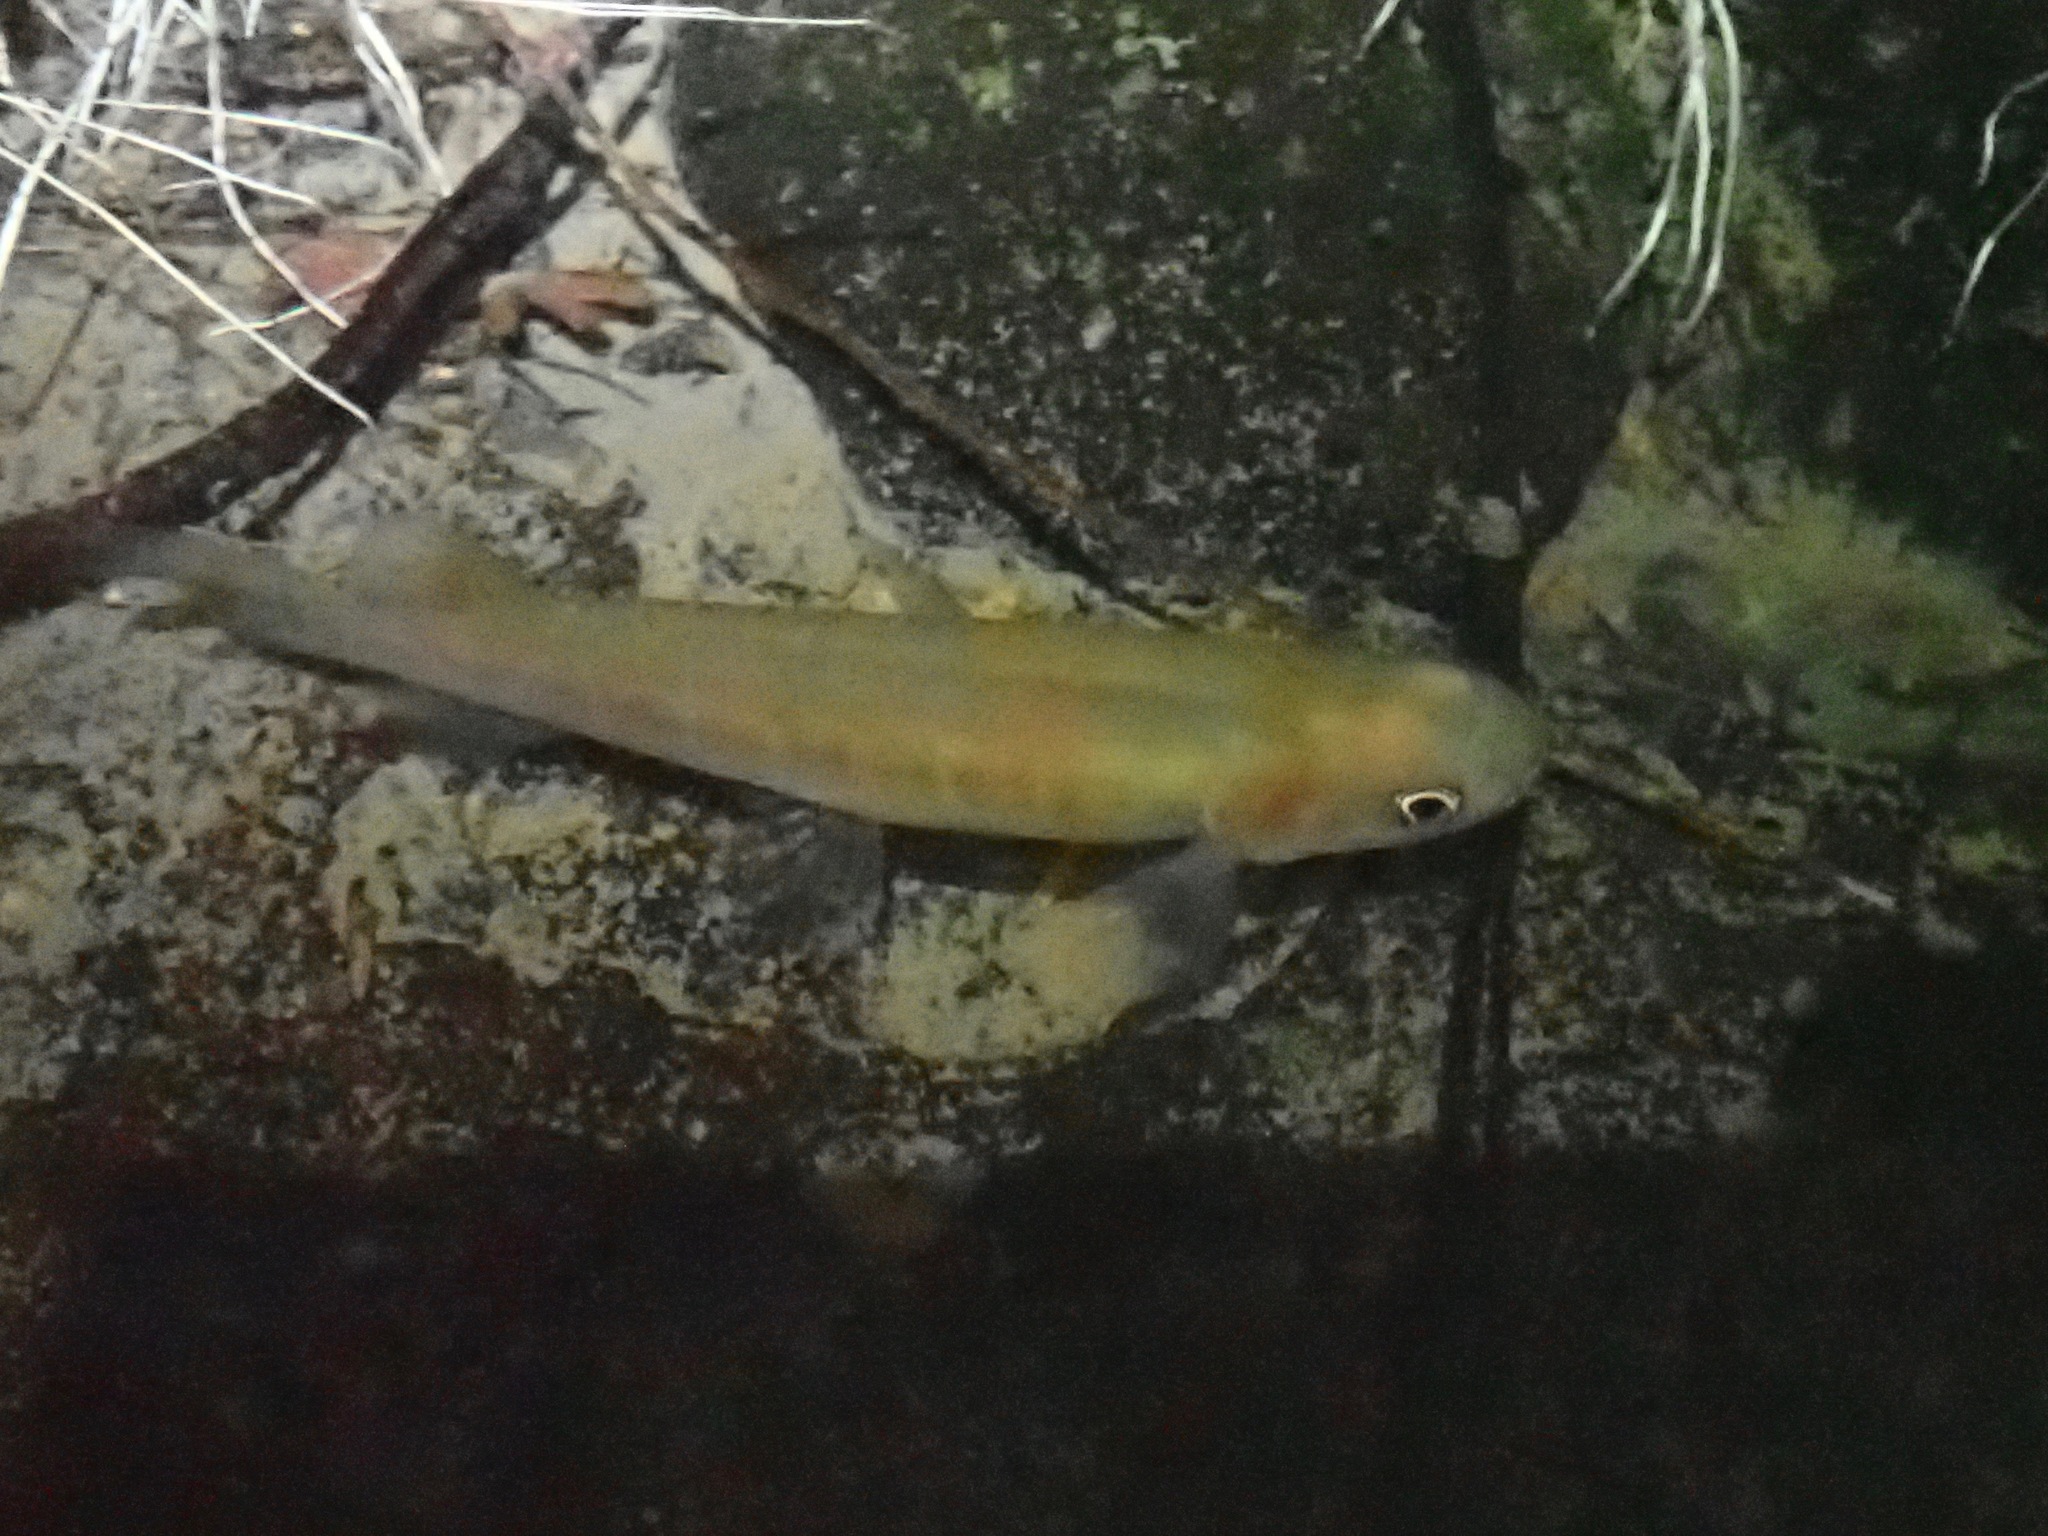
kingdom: Animalia
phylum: Chordata
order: Osmeriformes
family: Galaxiidae
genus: Galaxias
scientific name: Galaxias fasciatus
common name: Banded kokopu
